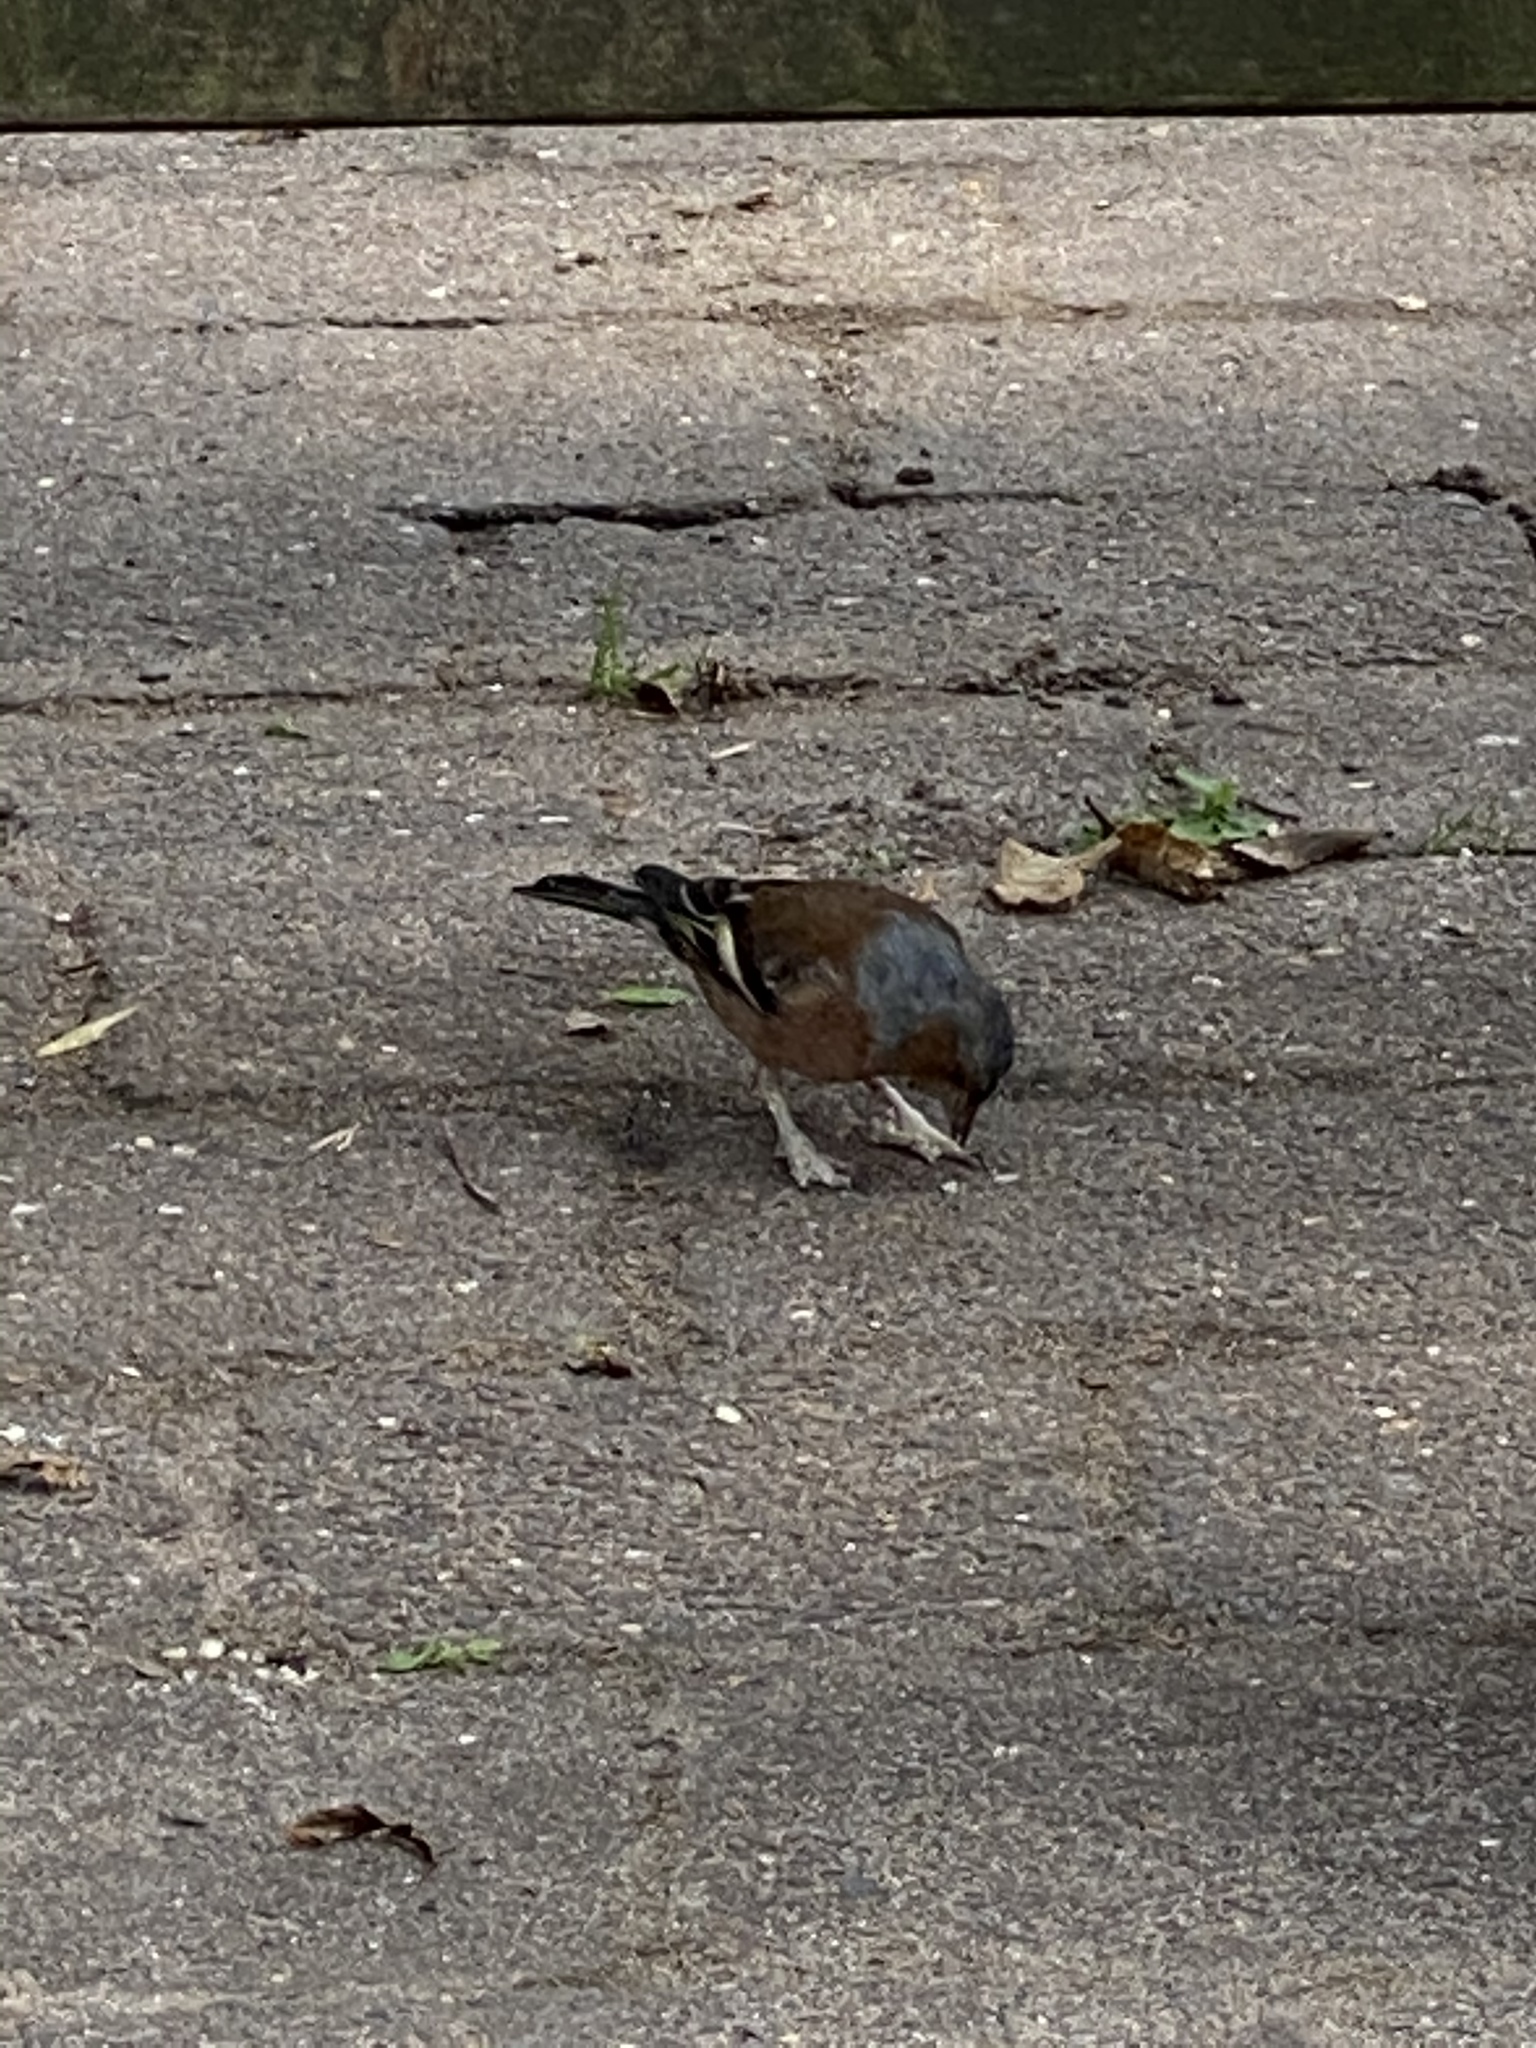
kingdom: Animalia
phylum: Chordata
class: Aves
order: Passeriformes
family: Fringillidae
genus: Fringilla
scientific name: Fringilla coelebs
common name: Common chaffinch
